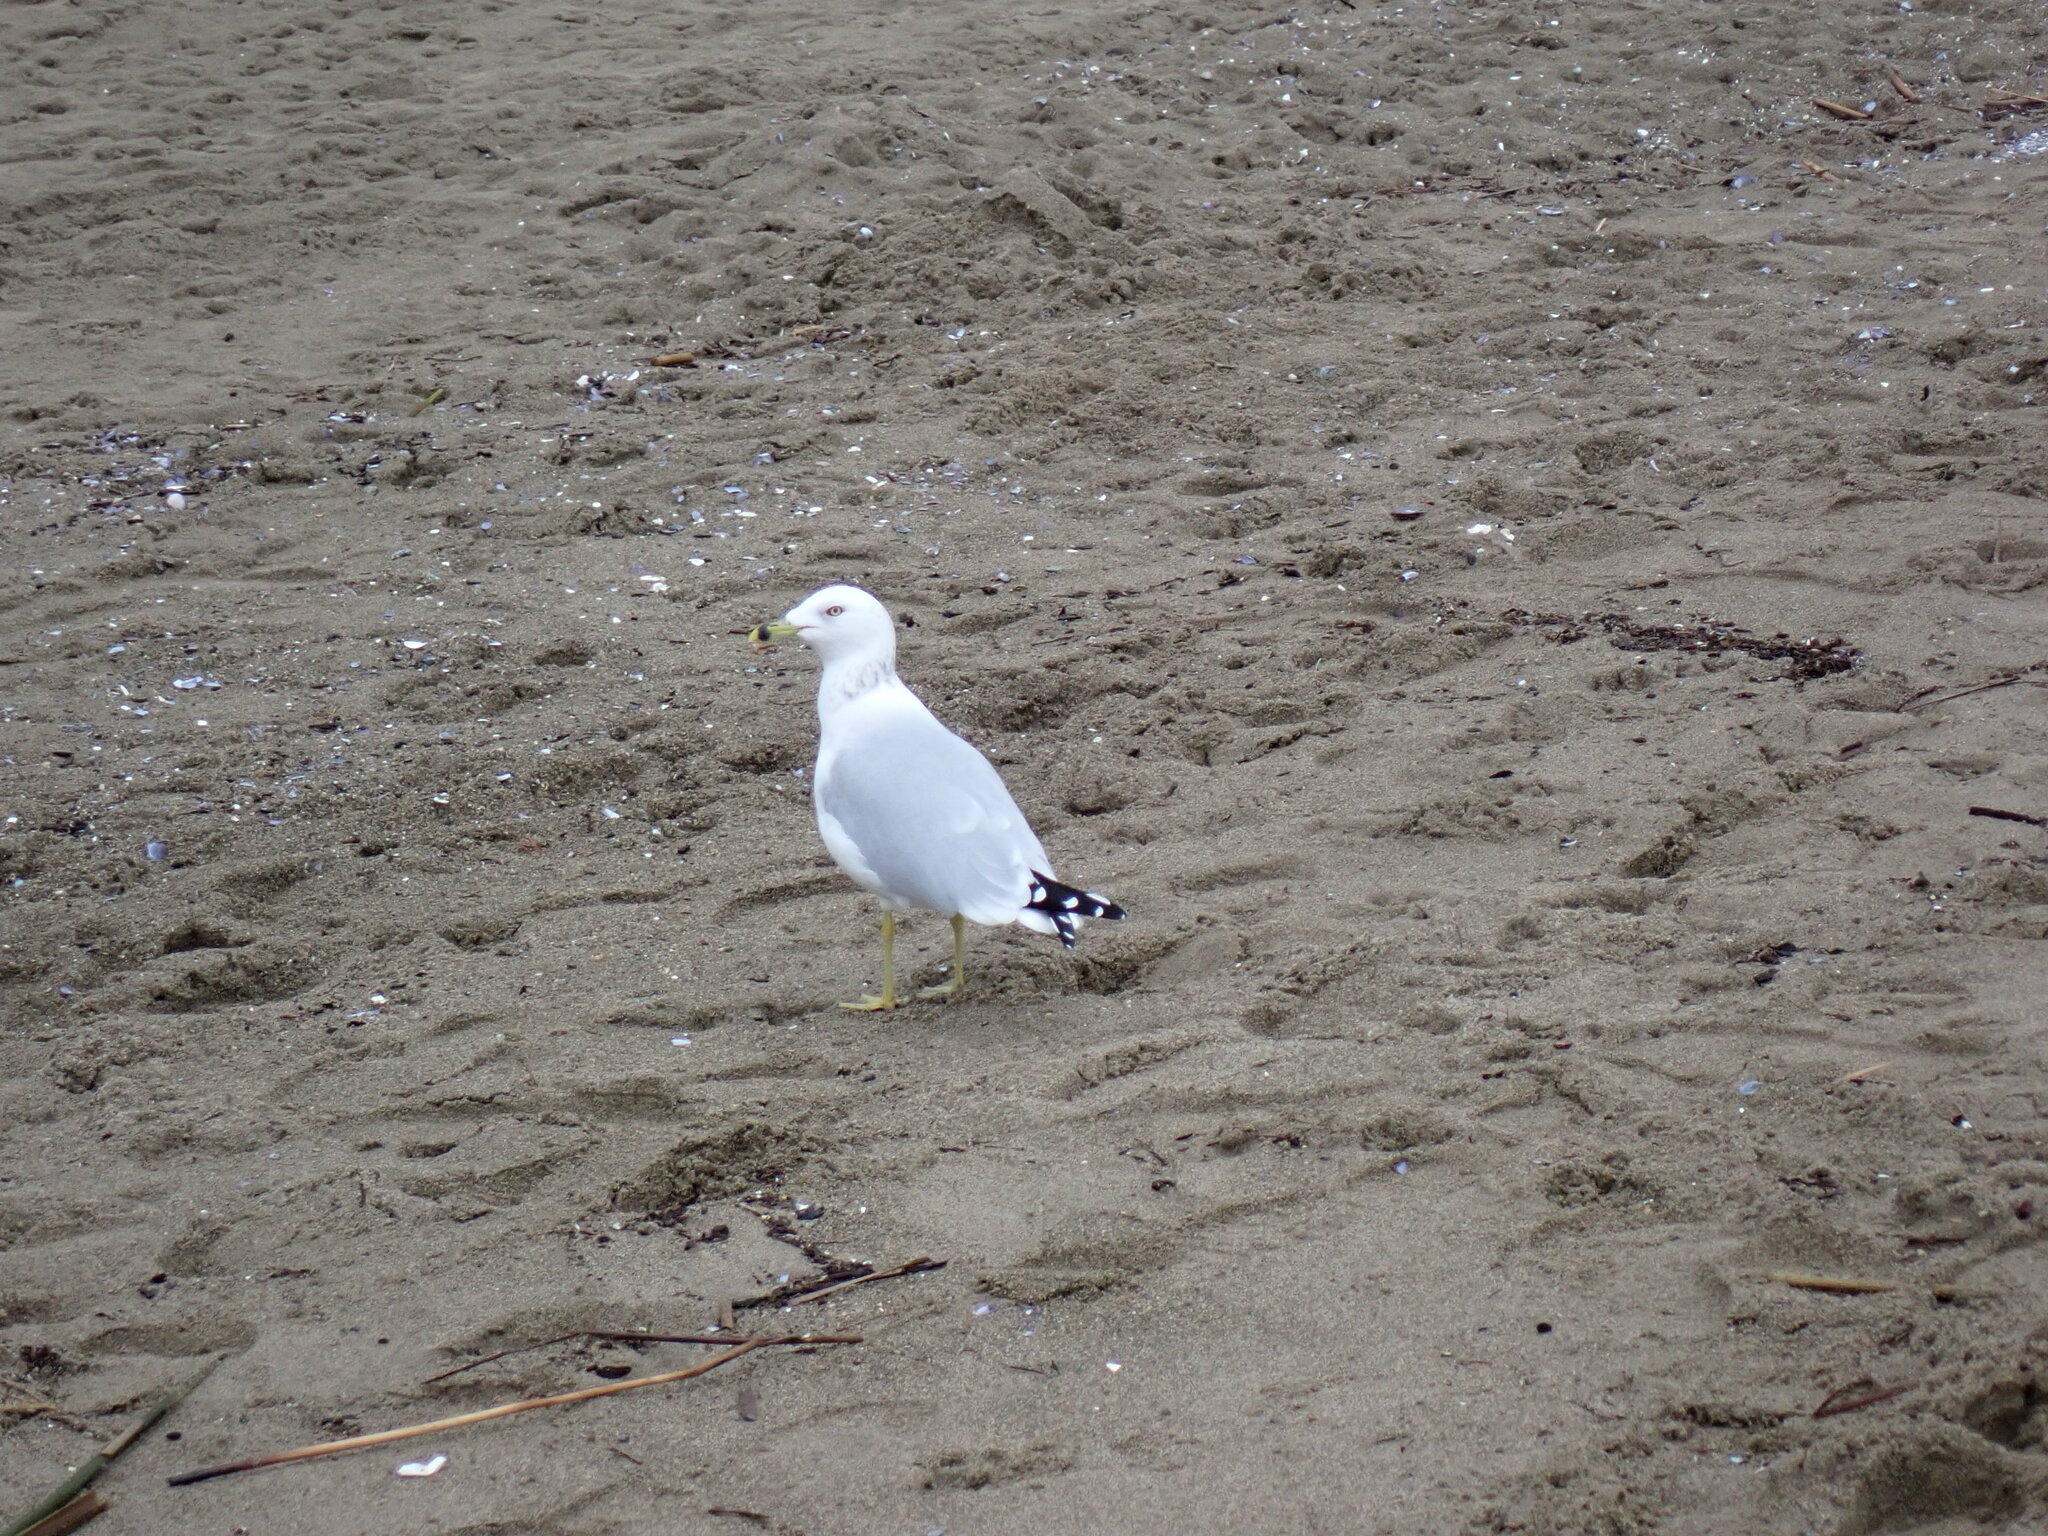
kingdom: Animalia
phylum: Chordata
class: Aves
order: Charadriiformes
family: Laridae
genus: Larus
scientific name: Larus delawarensis
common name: Ring-billed gull
